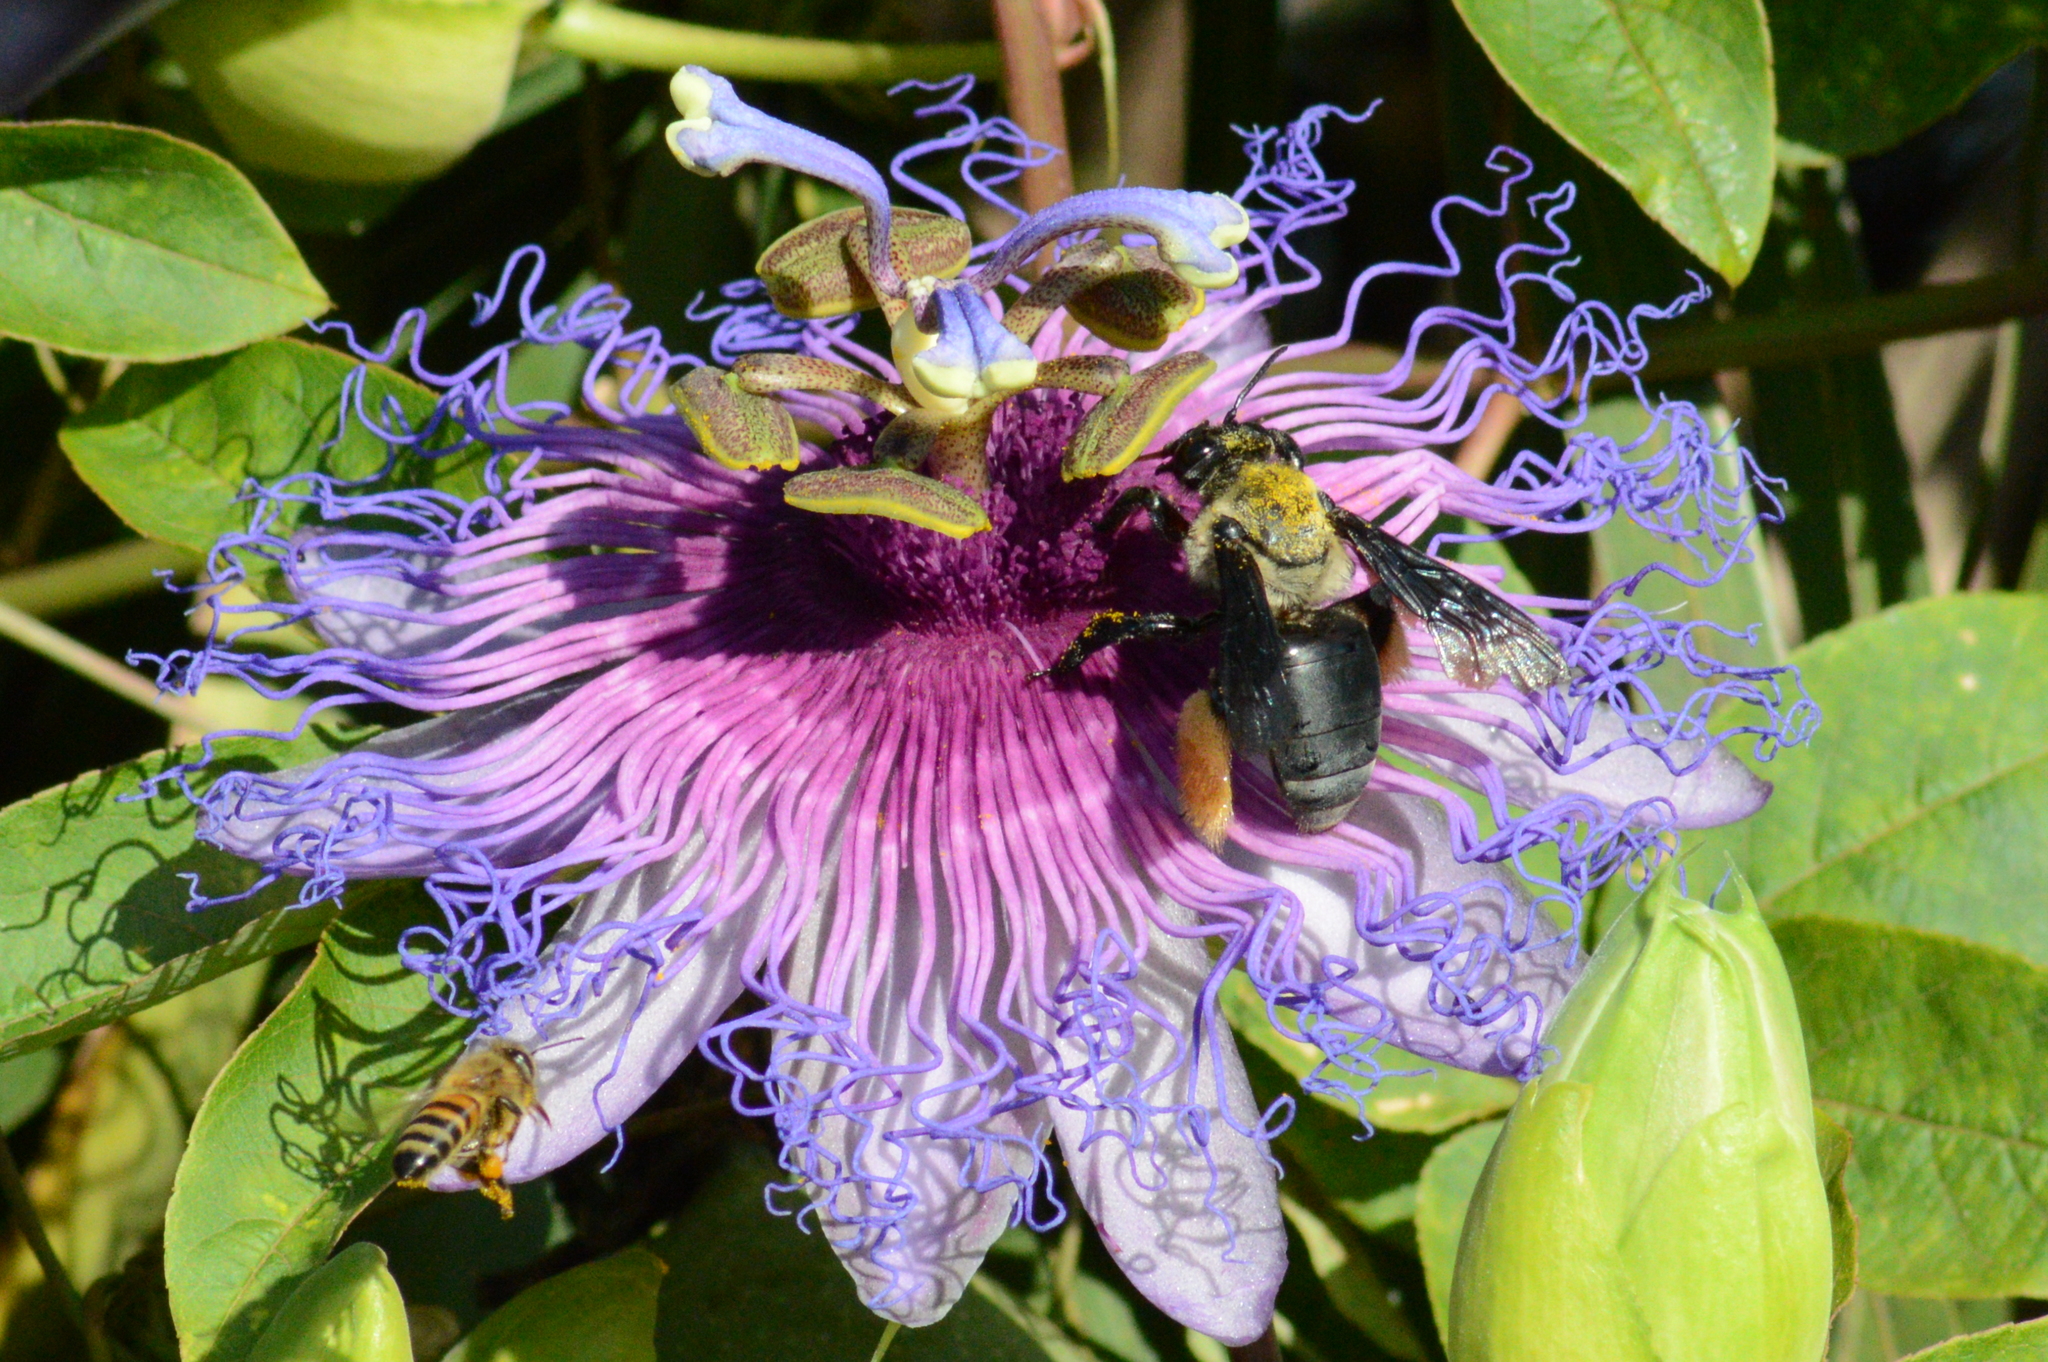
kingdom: Animalia
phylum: Arthropoda
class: Insecta
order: Hymenoptera
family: Apidae
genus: Epicharis
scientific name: Epicharis flava
